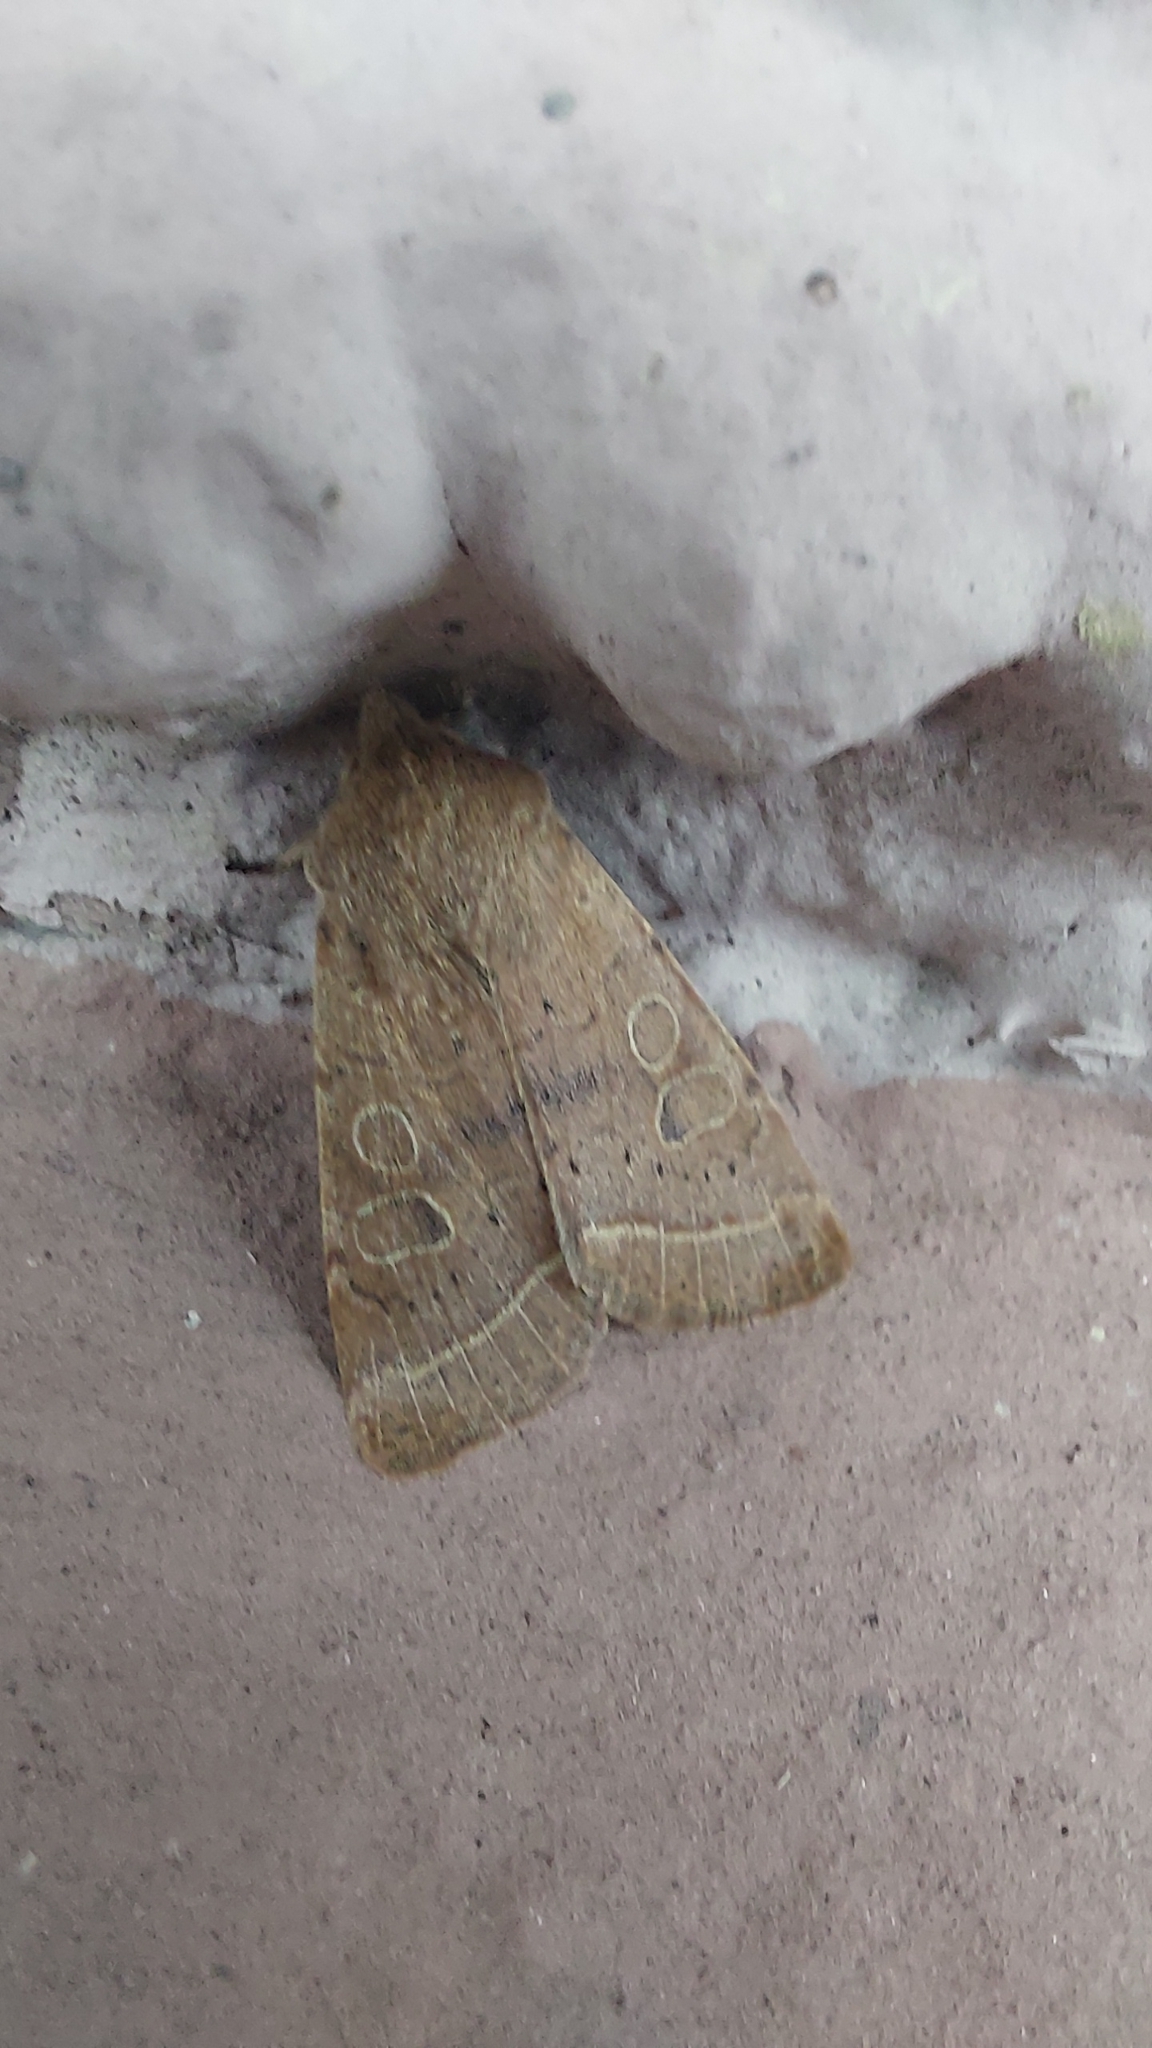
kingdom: Animalia
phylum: Arthropoda
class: Insecta
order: Lepidoptera
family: Noctuidae
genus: Orthosia
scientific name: Orthosia cerasi
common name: Common quaker
